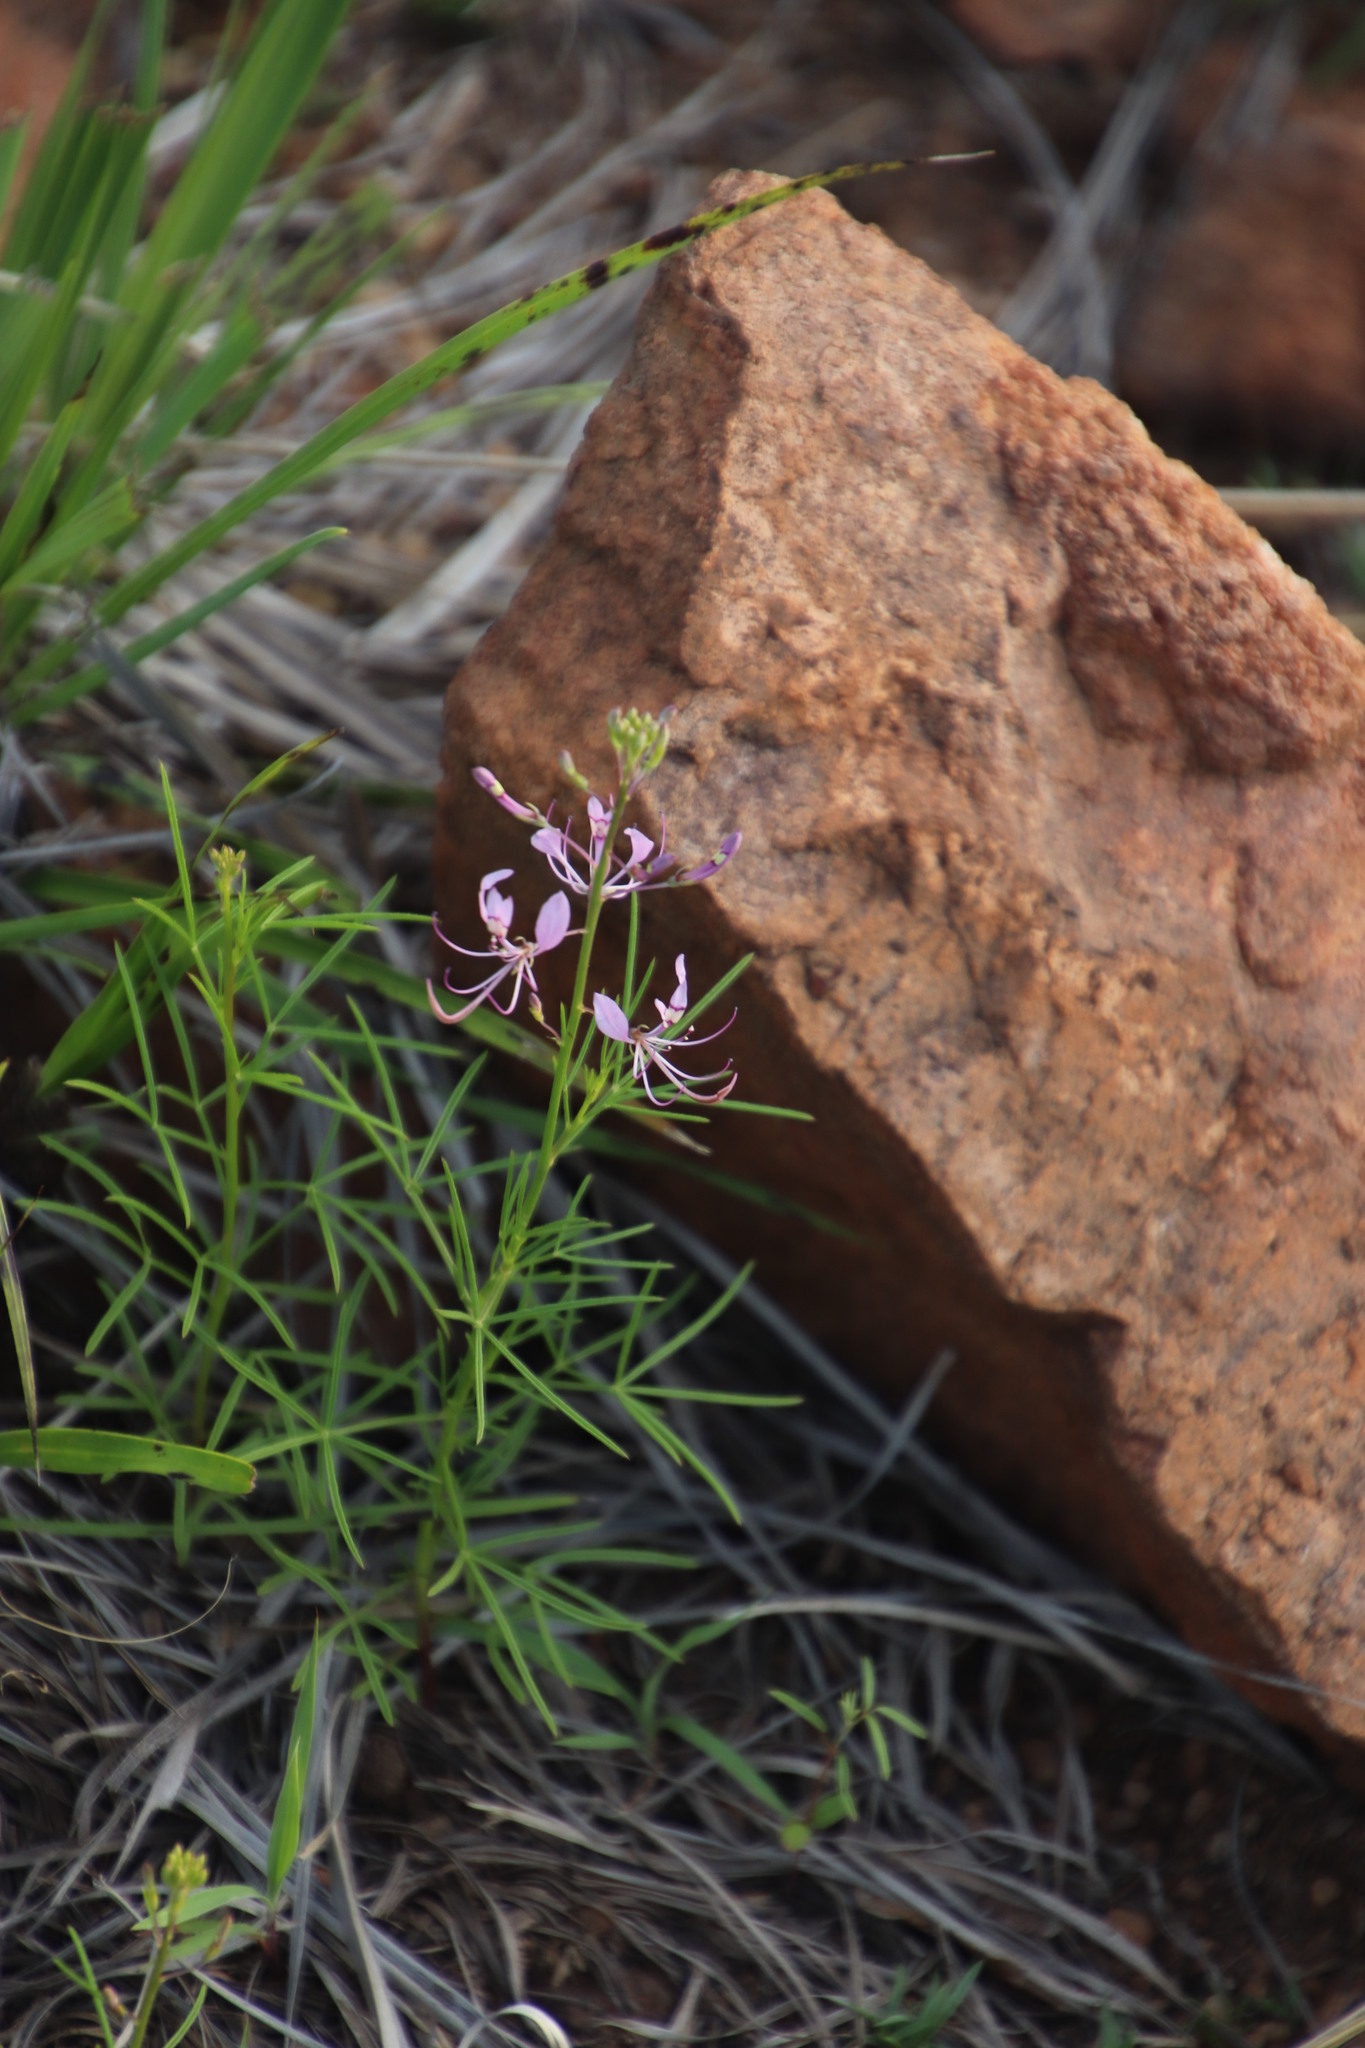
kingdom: Plantae
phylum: Tracheophyta
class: Magnoliopsida
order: Brassicales
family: Cleomaceae
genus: Sieruela
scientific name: Sieruela maculata
